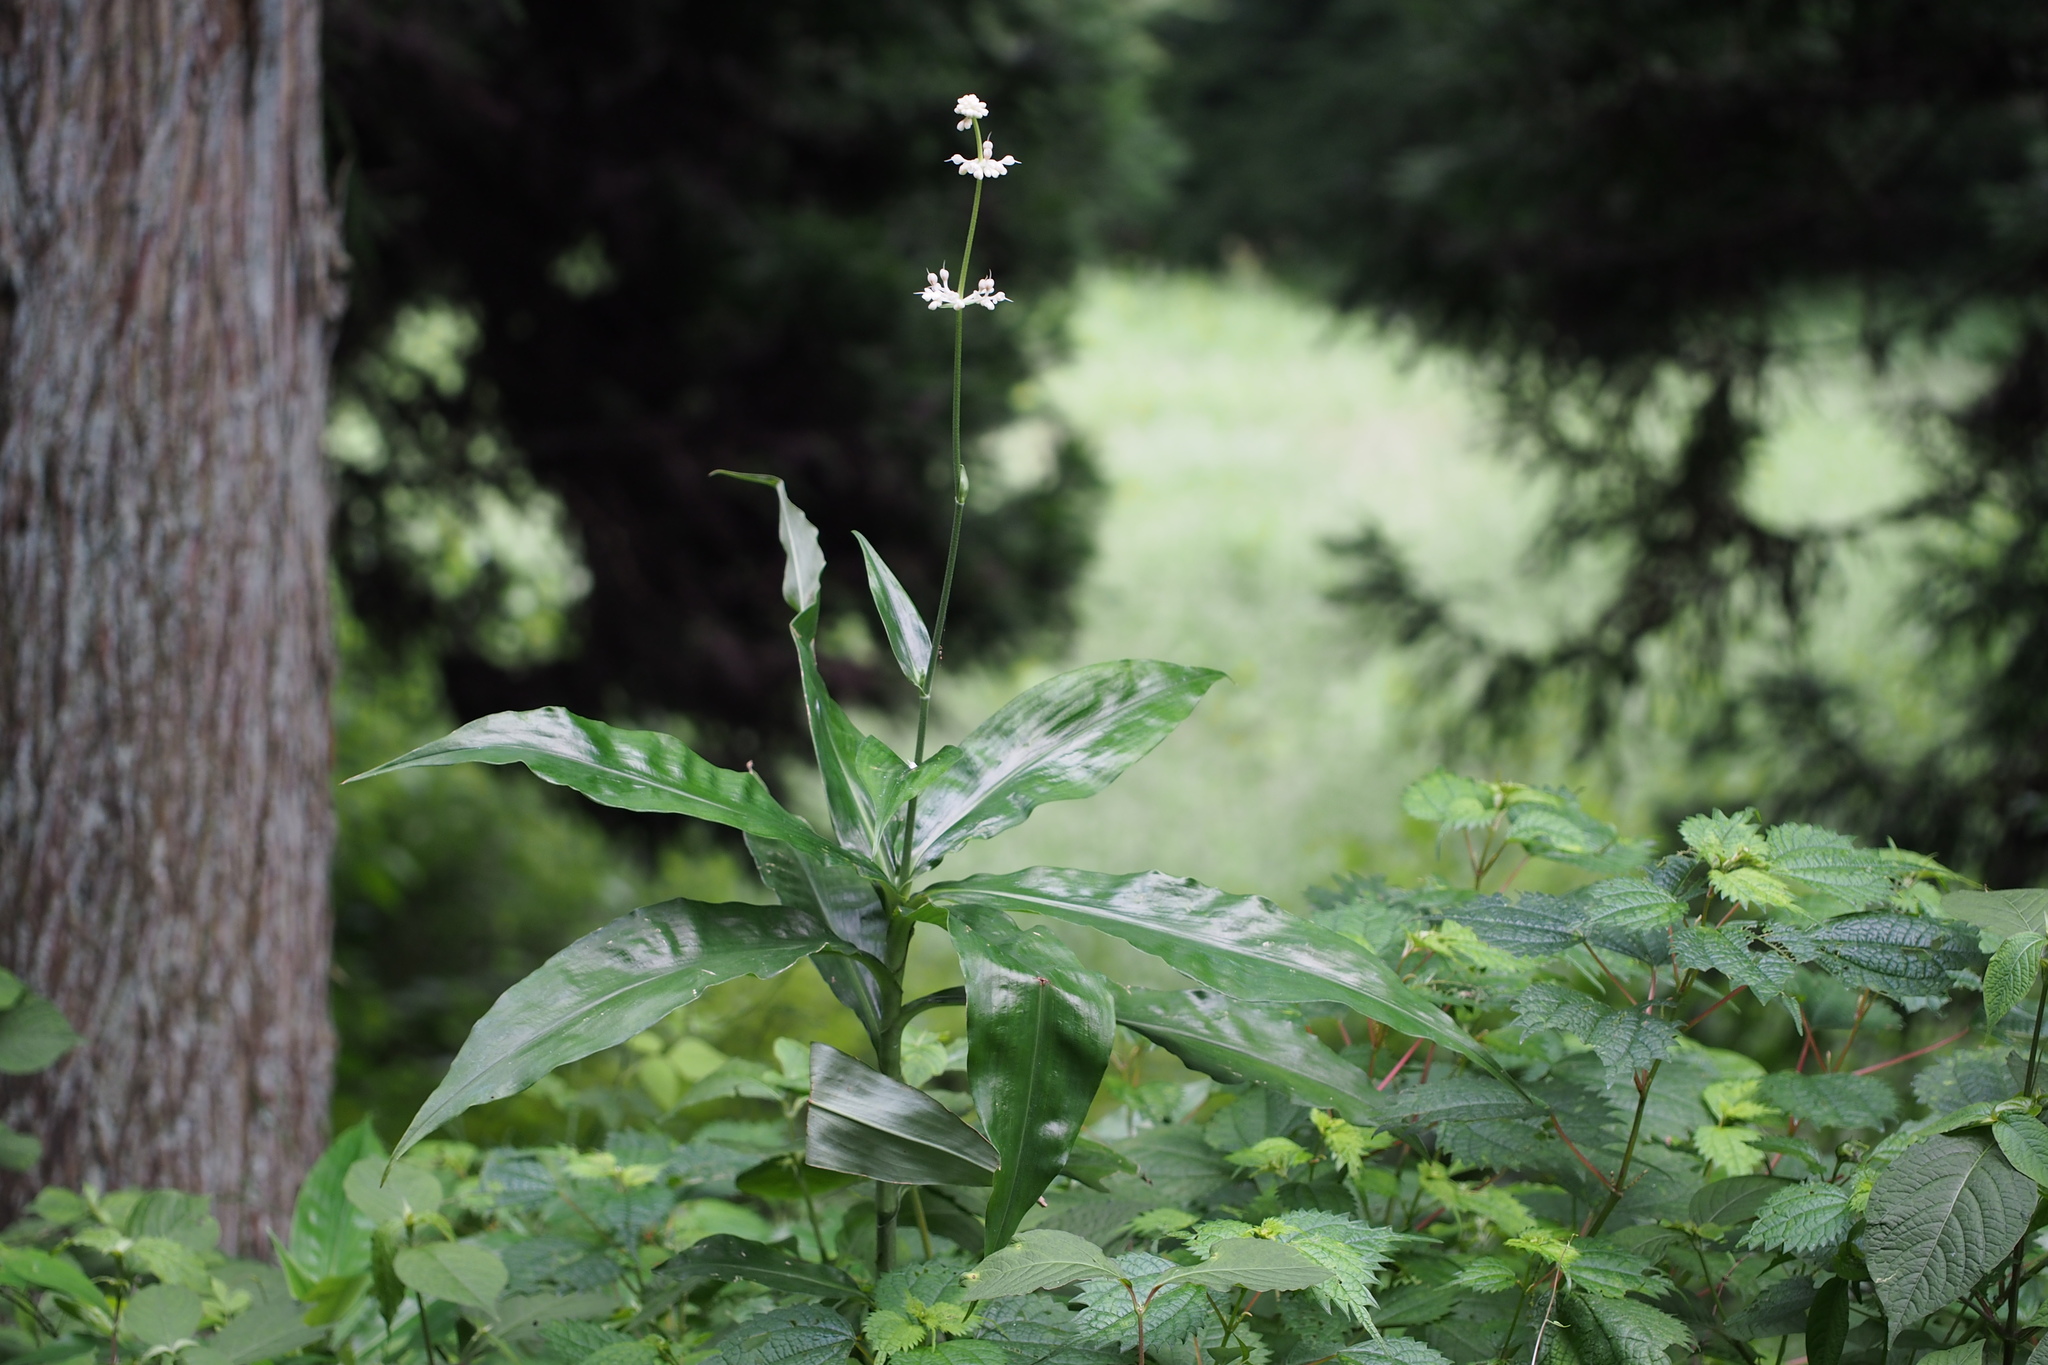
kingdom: Plantae
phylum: Tracheophyta
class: Liliopsida
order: Commelinales
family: Commelinaceae
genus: Pollia
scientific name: Pollia japonica
